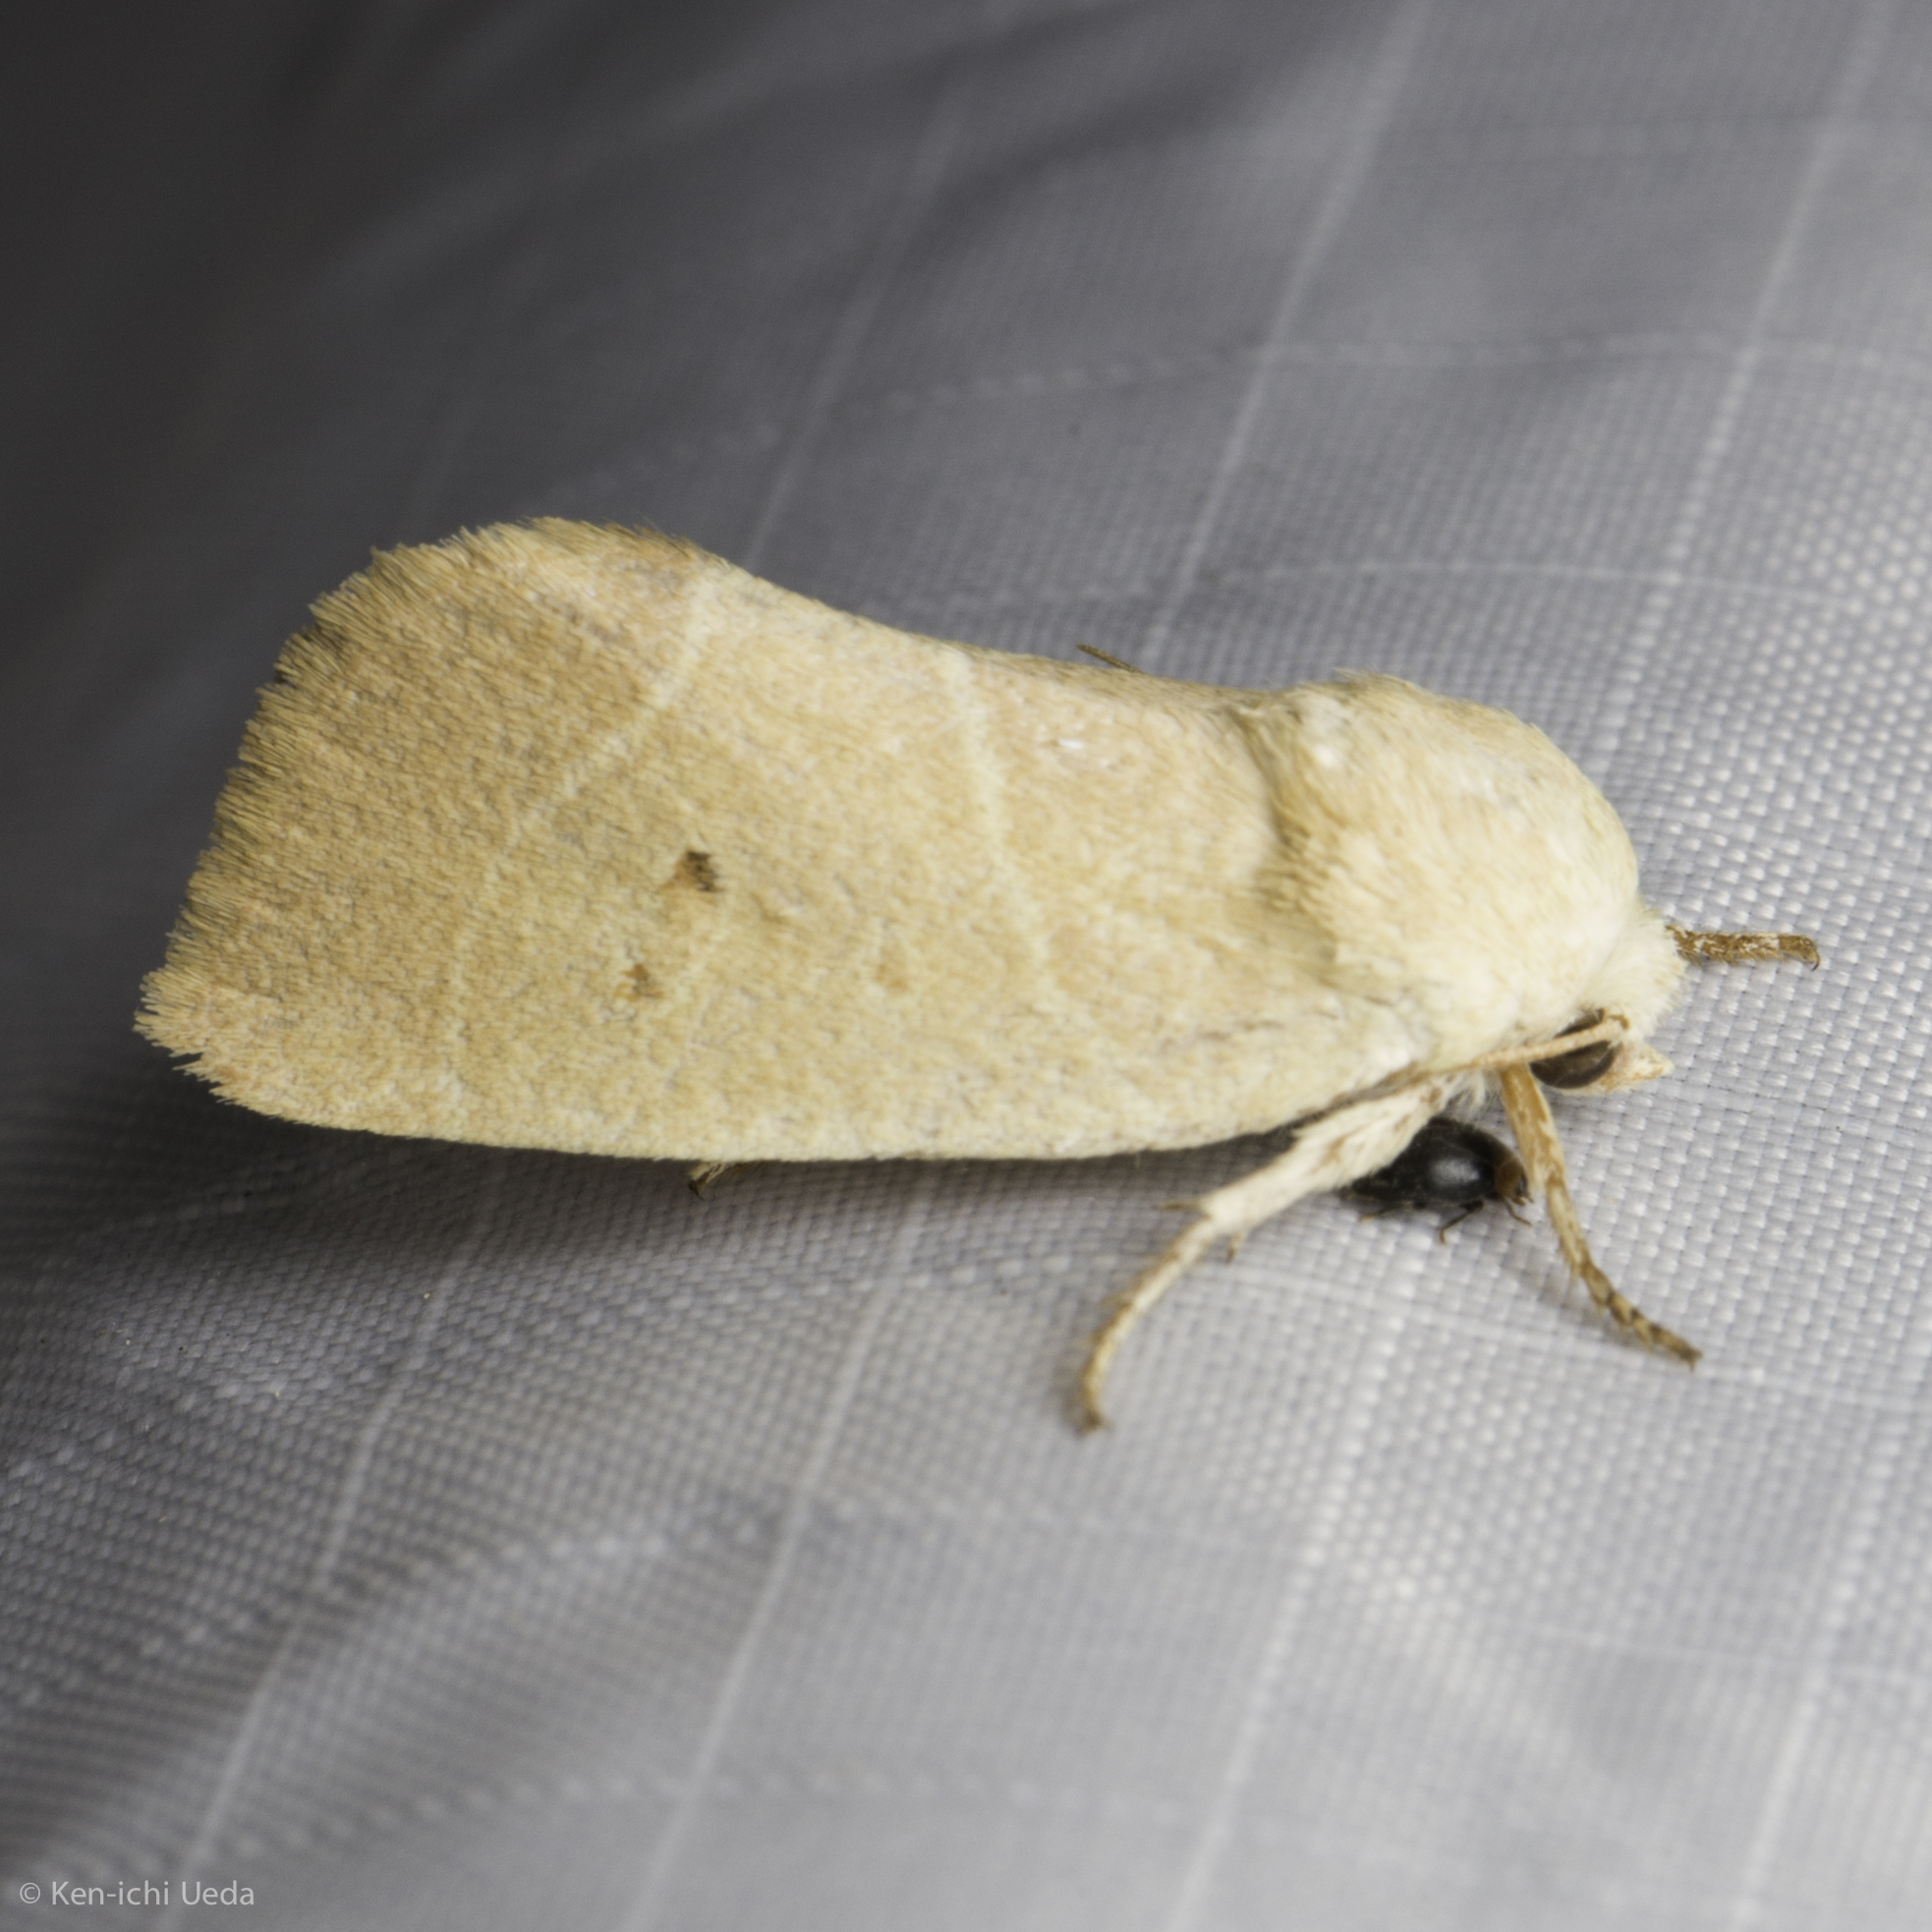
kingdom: Animalia
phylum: Arthropoda
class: Insecta
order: Lepidoptera
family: Noctuidae
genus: Cosmia
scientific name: Cosmia calami
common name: American dun-bar moth
